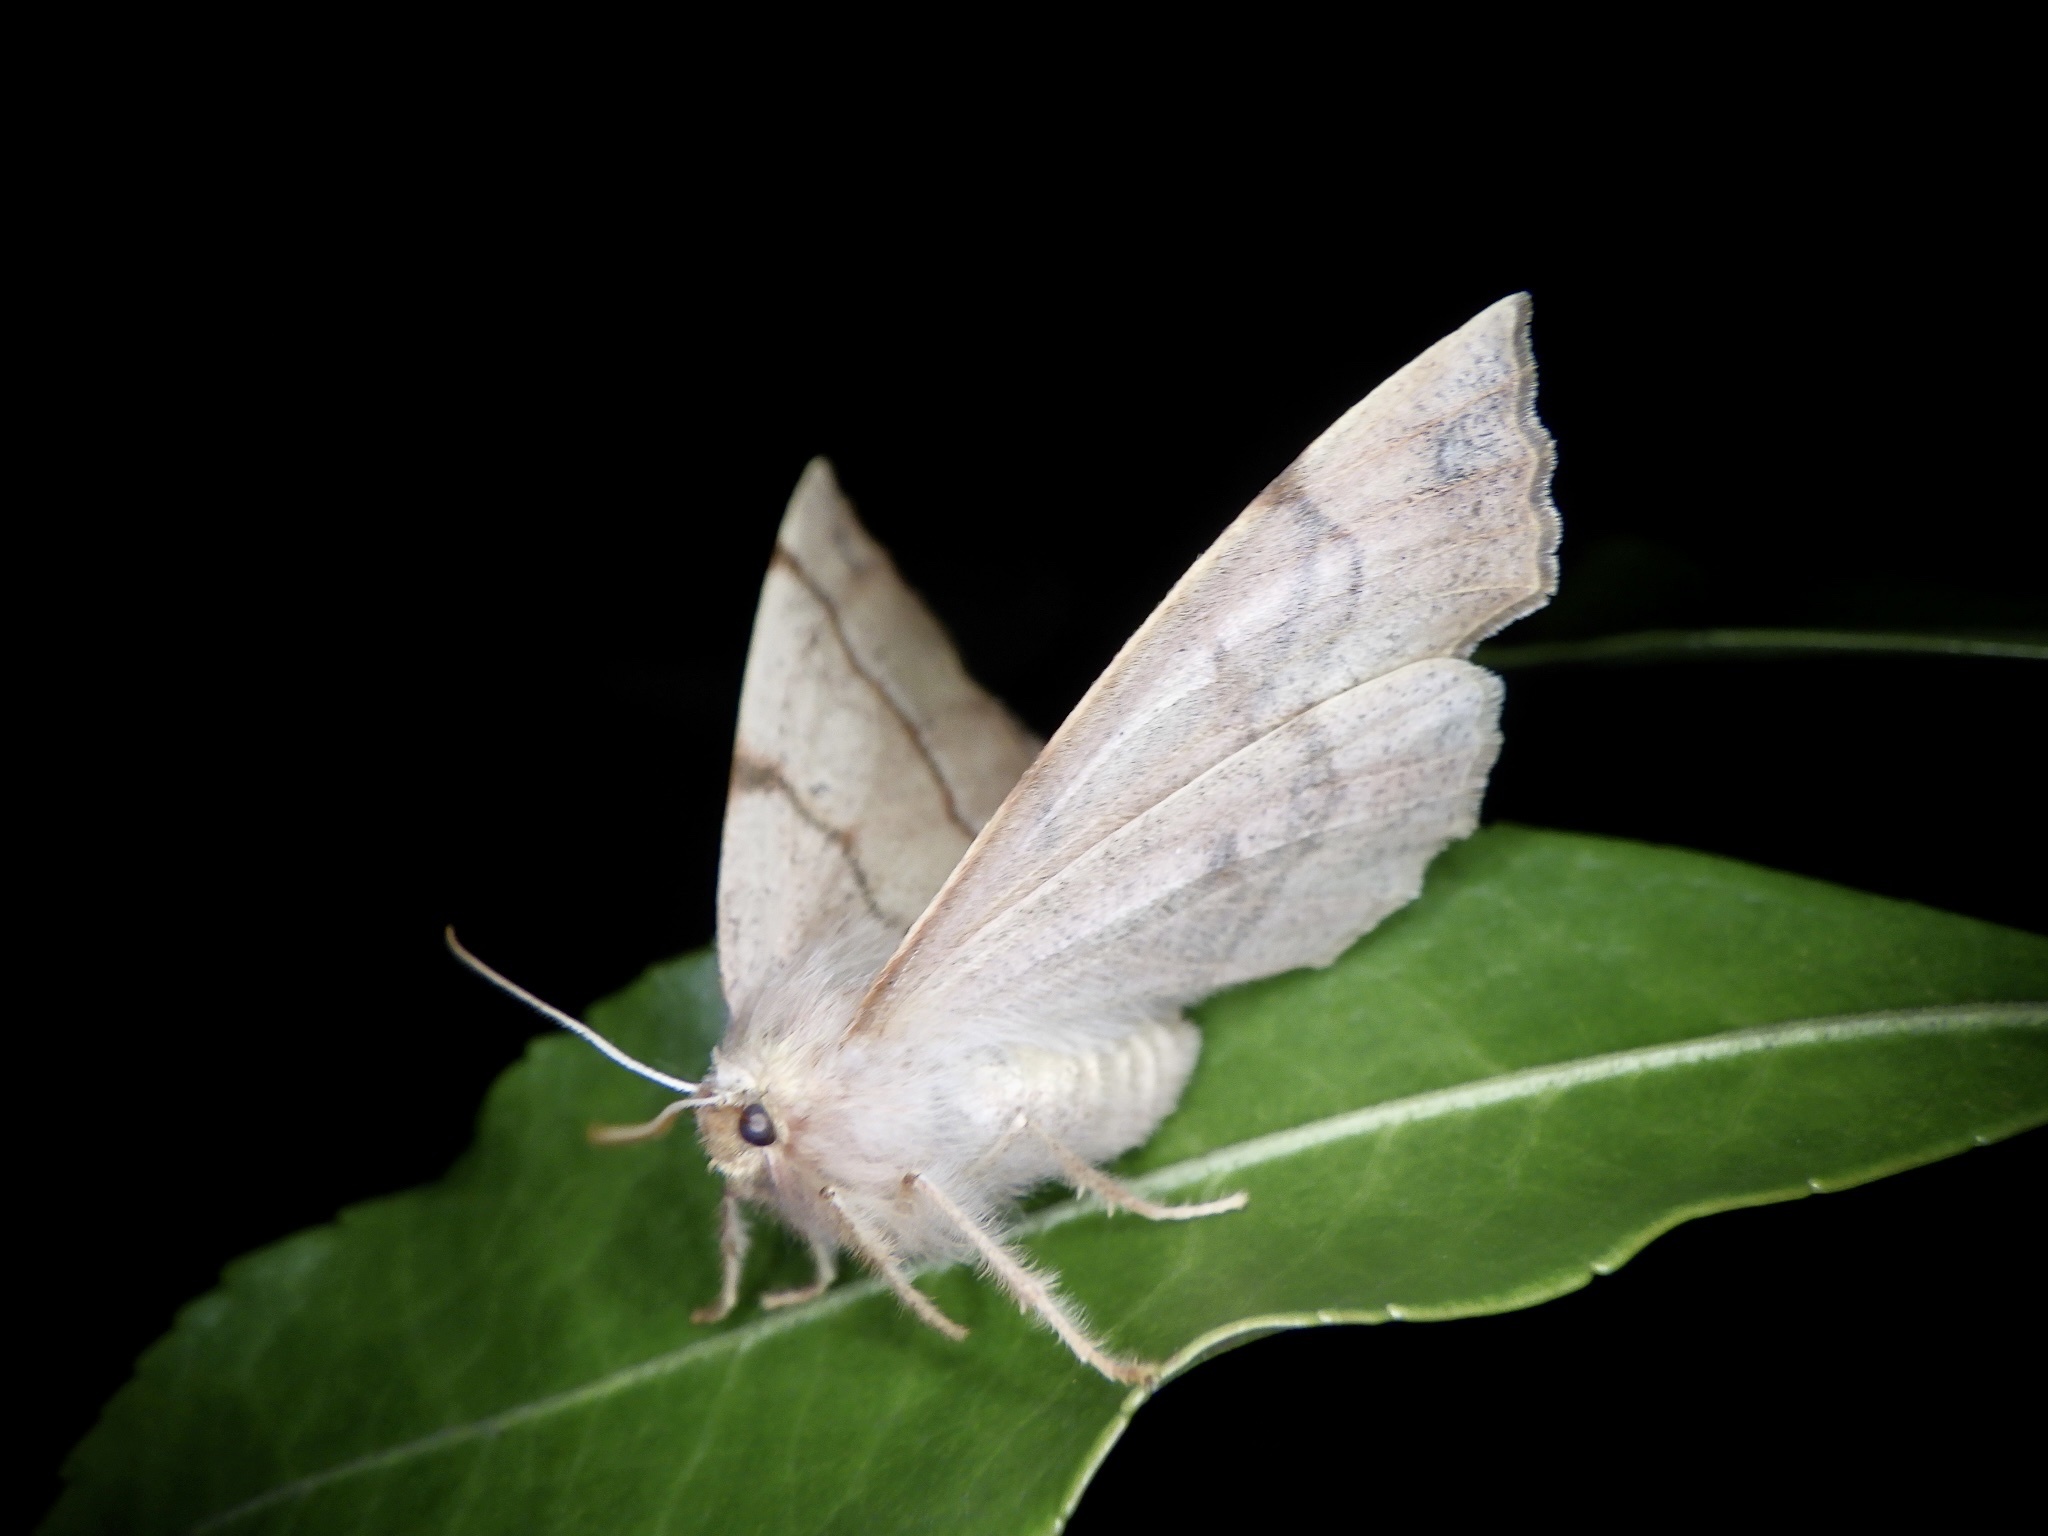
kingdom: Animalia
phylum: Arthropoda
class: Insecta
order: Lepidoptera
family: Geometridae
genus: Colotois
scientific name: Colotois pennaria
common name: Feathered thorn
